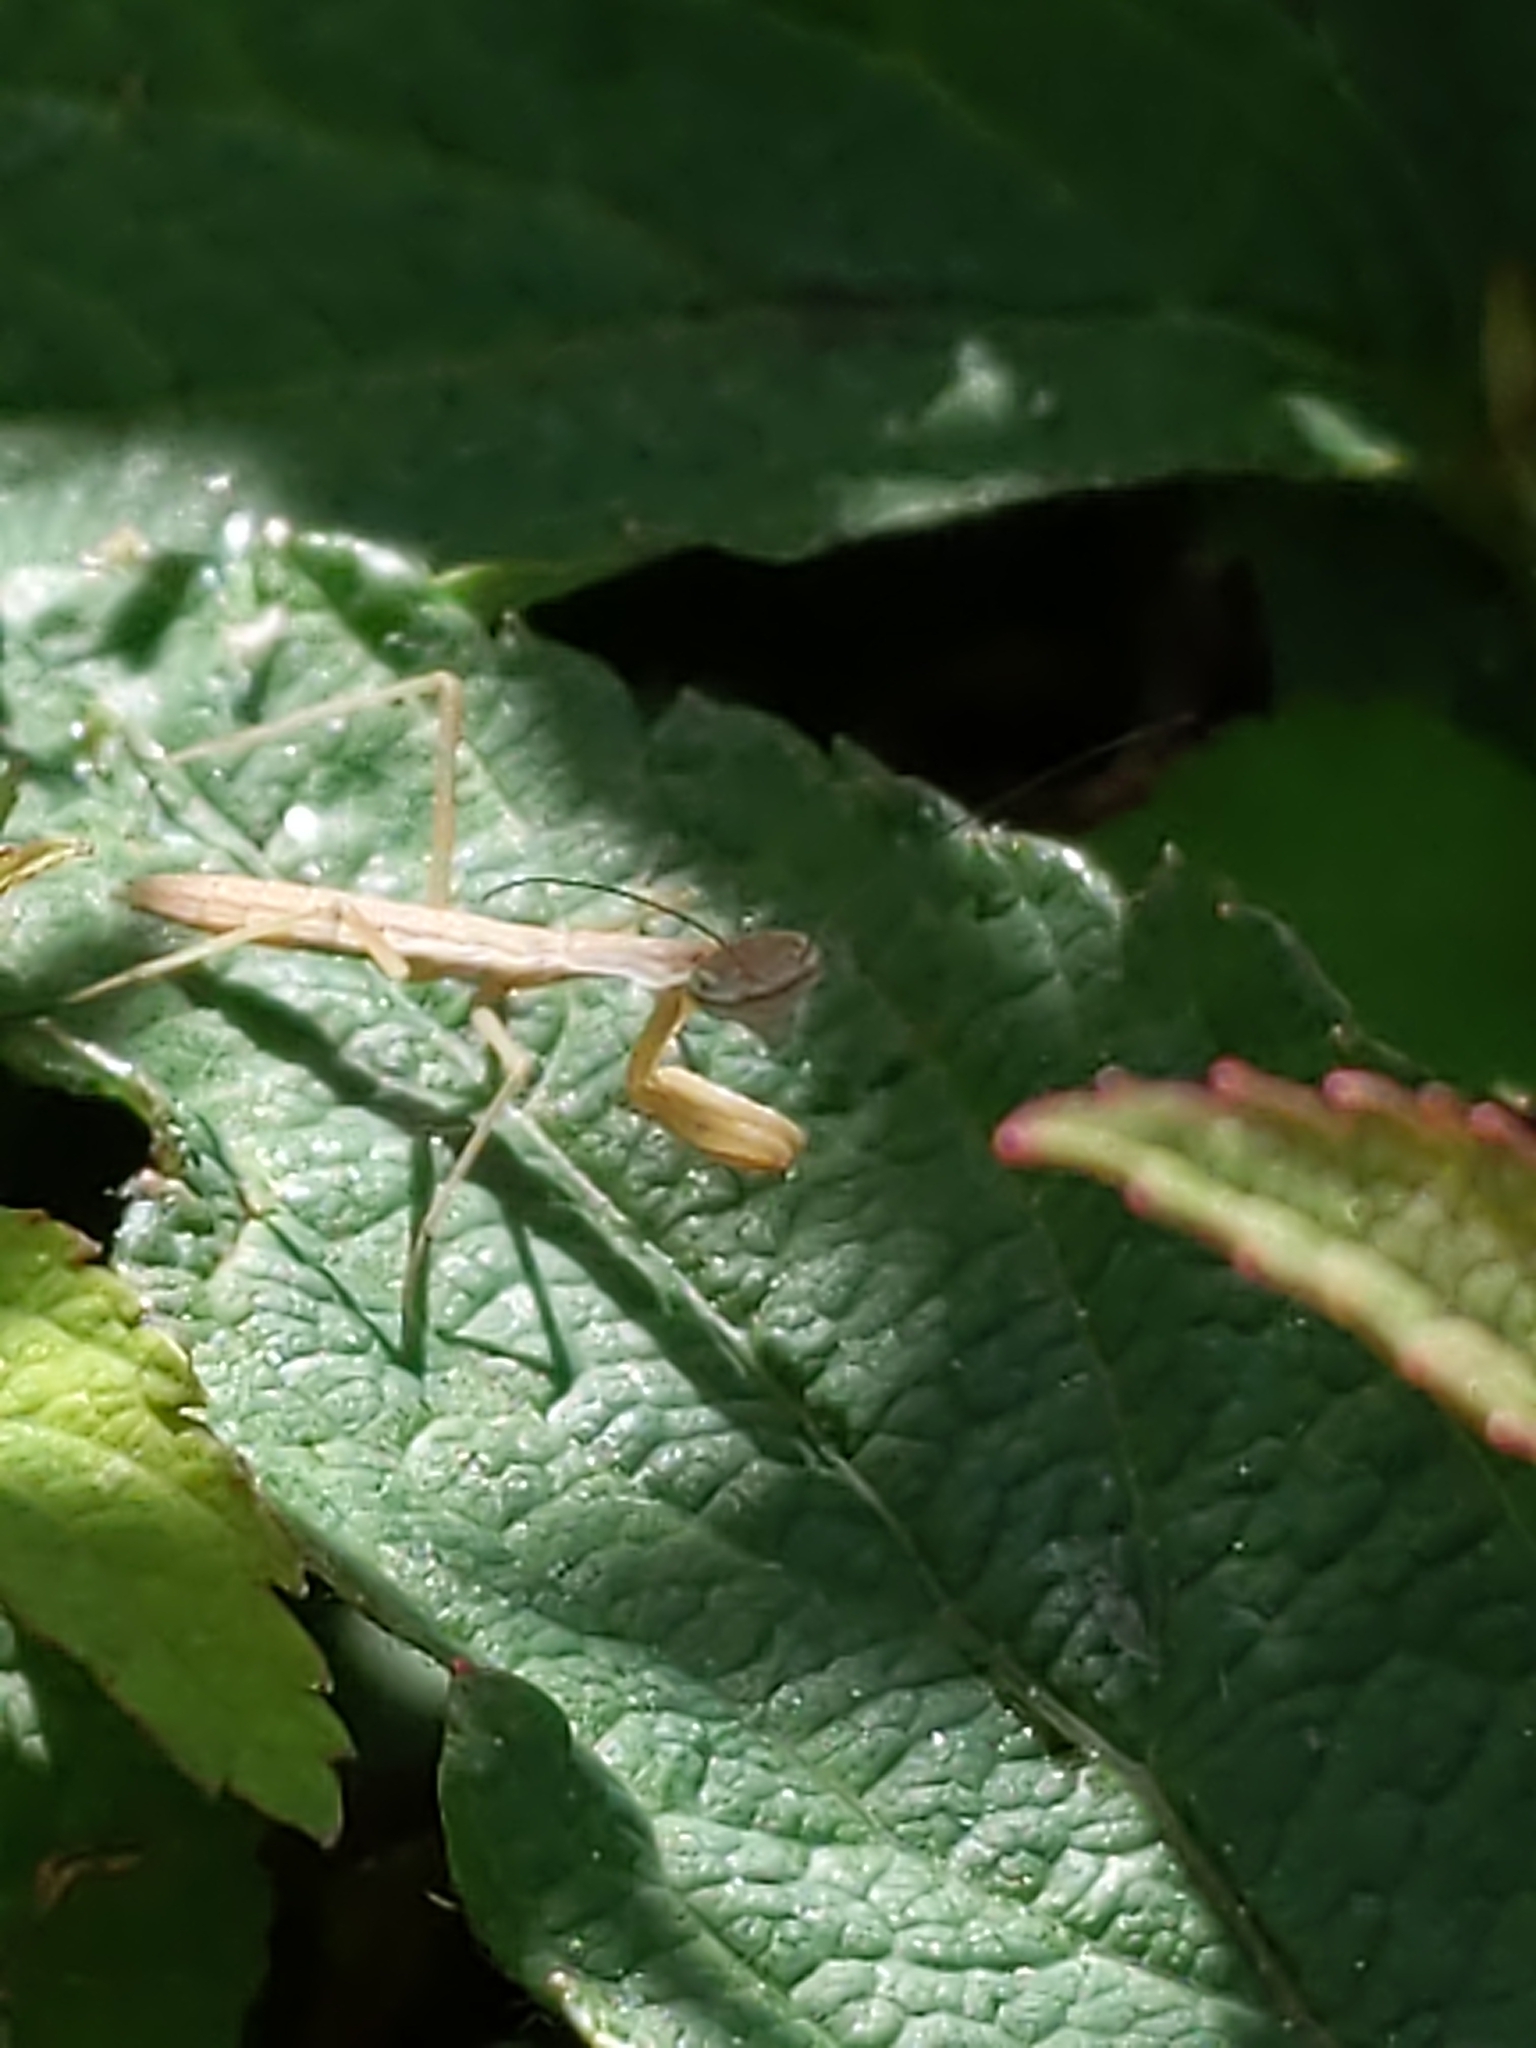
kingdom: Animalia
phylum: Arthropoda
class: Insecta
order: Mantodea
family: Mantidae
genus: Tenodera
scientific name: Tenodera sinensis
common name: Chinese mantis
